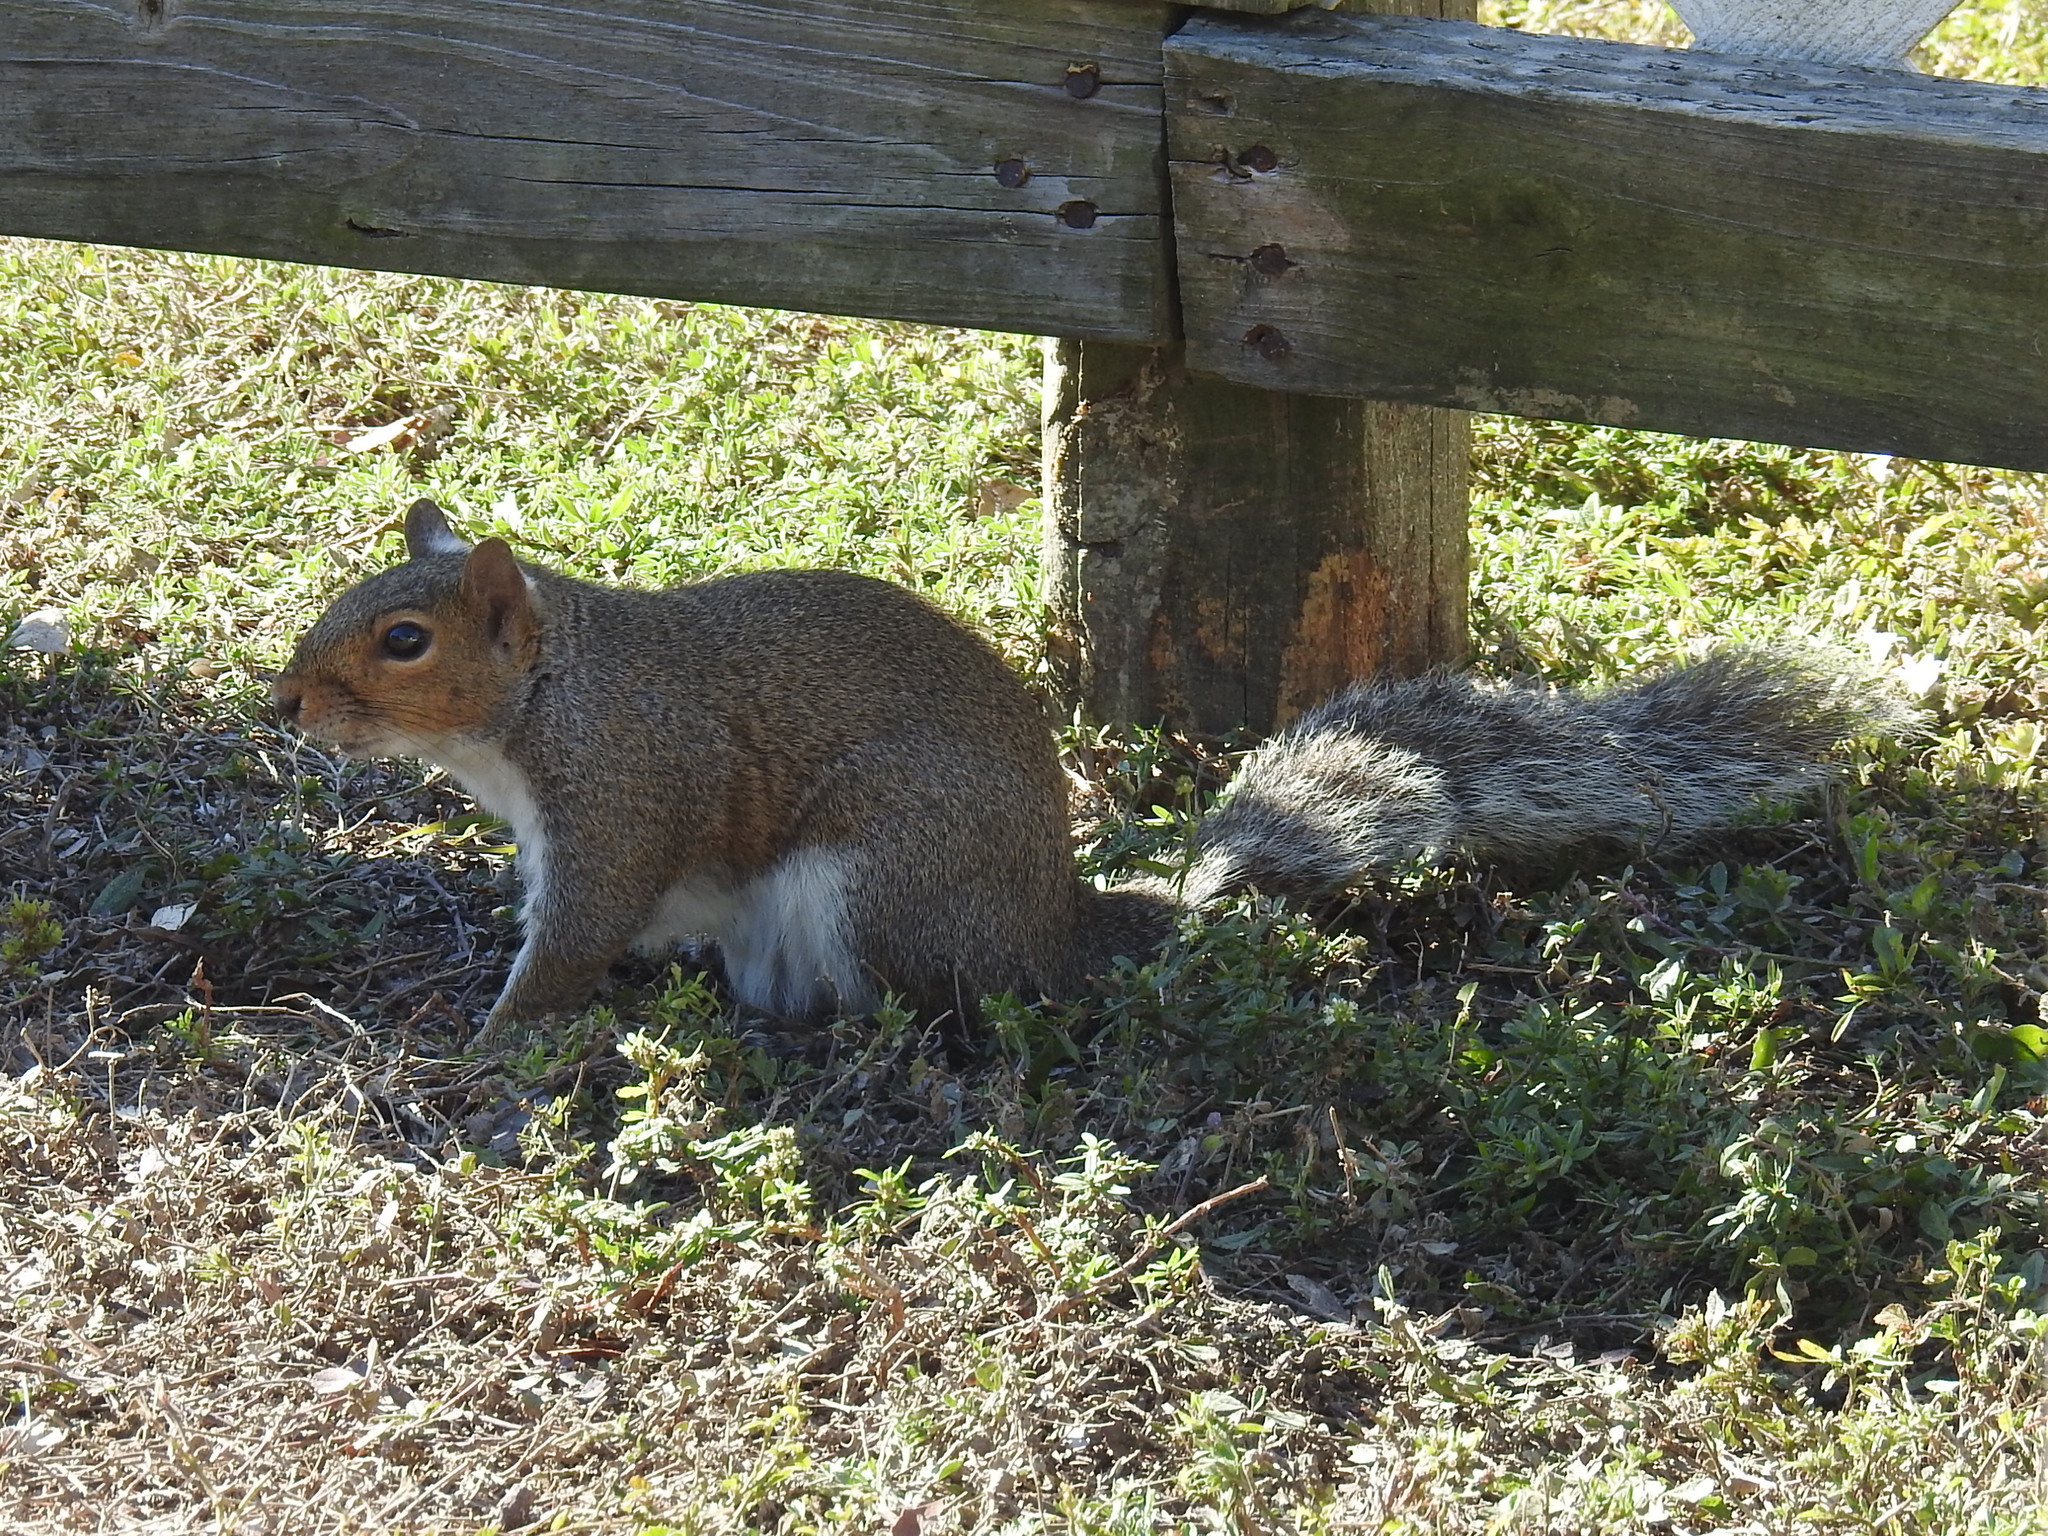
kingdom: Animalia
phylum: Chordata
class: Mammalia
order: Rodentia
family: Sciuridae
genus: Sciurus
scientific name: Sciurus carolinensis
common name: Eastern gray squirrel
